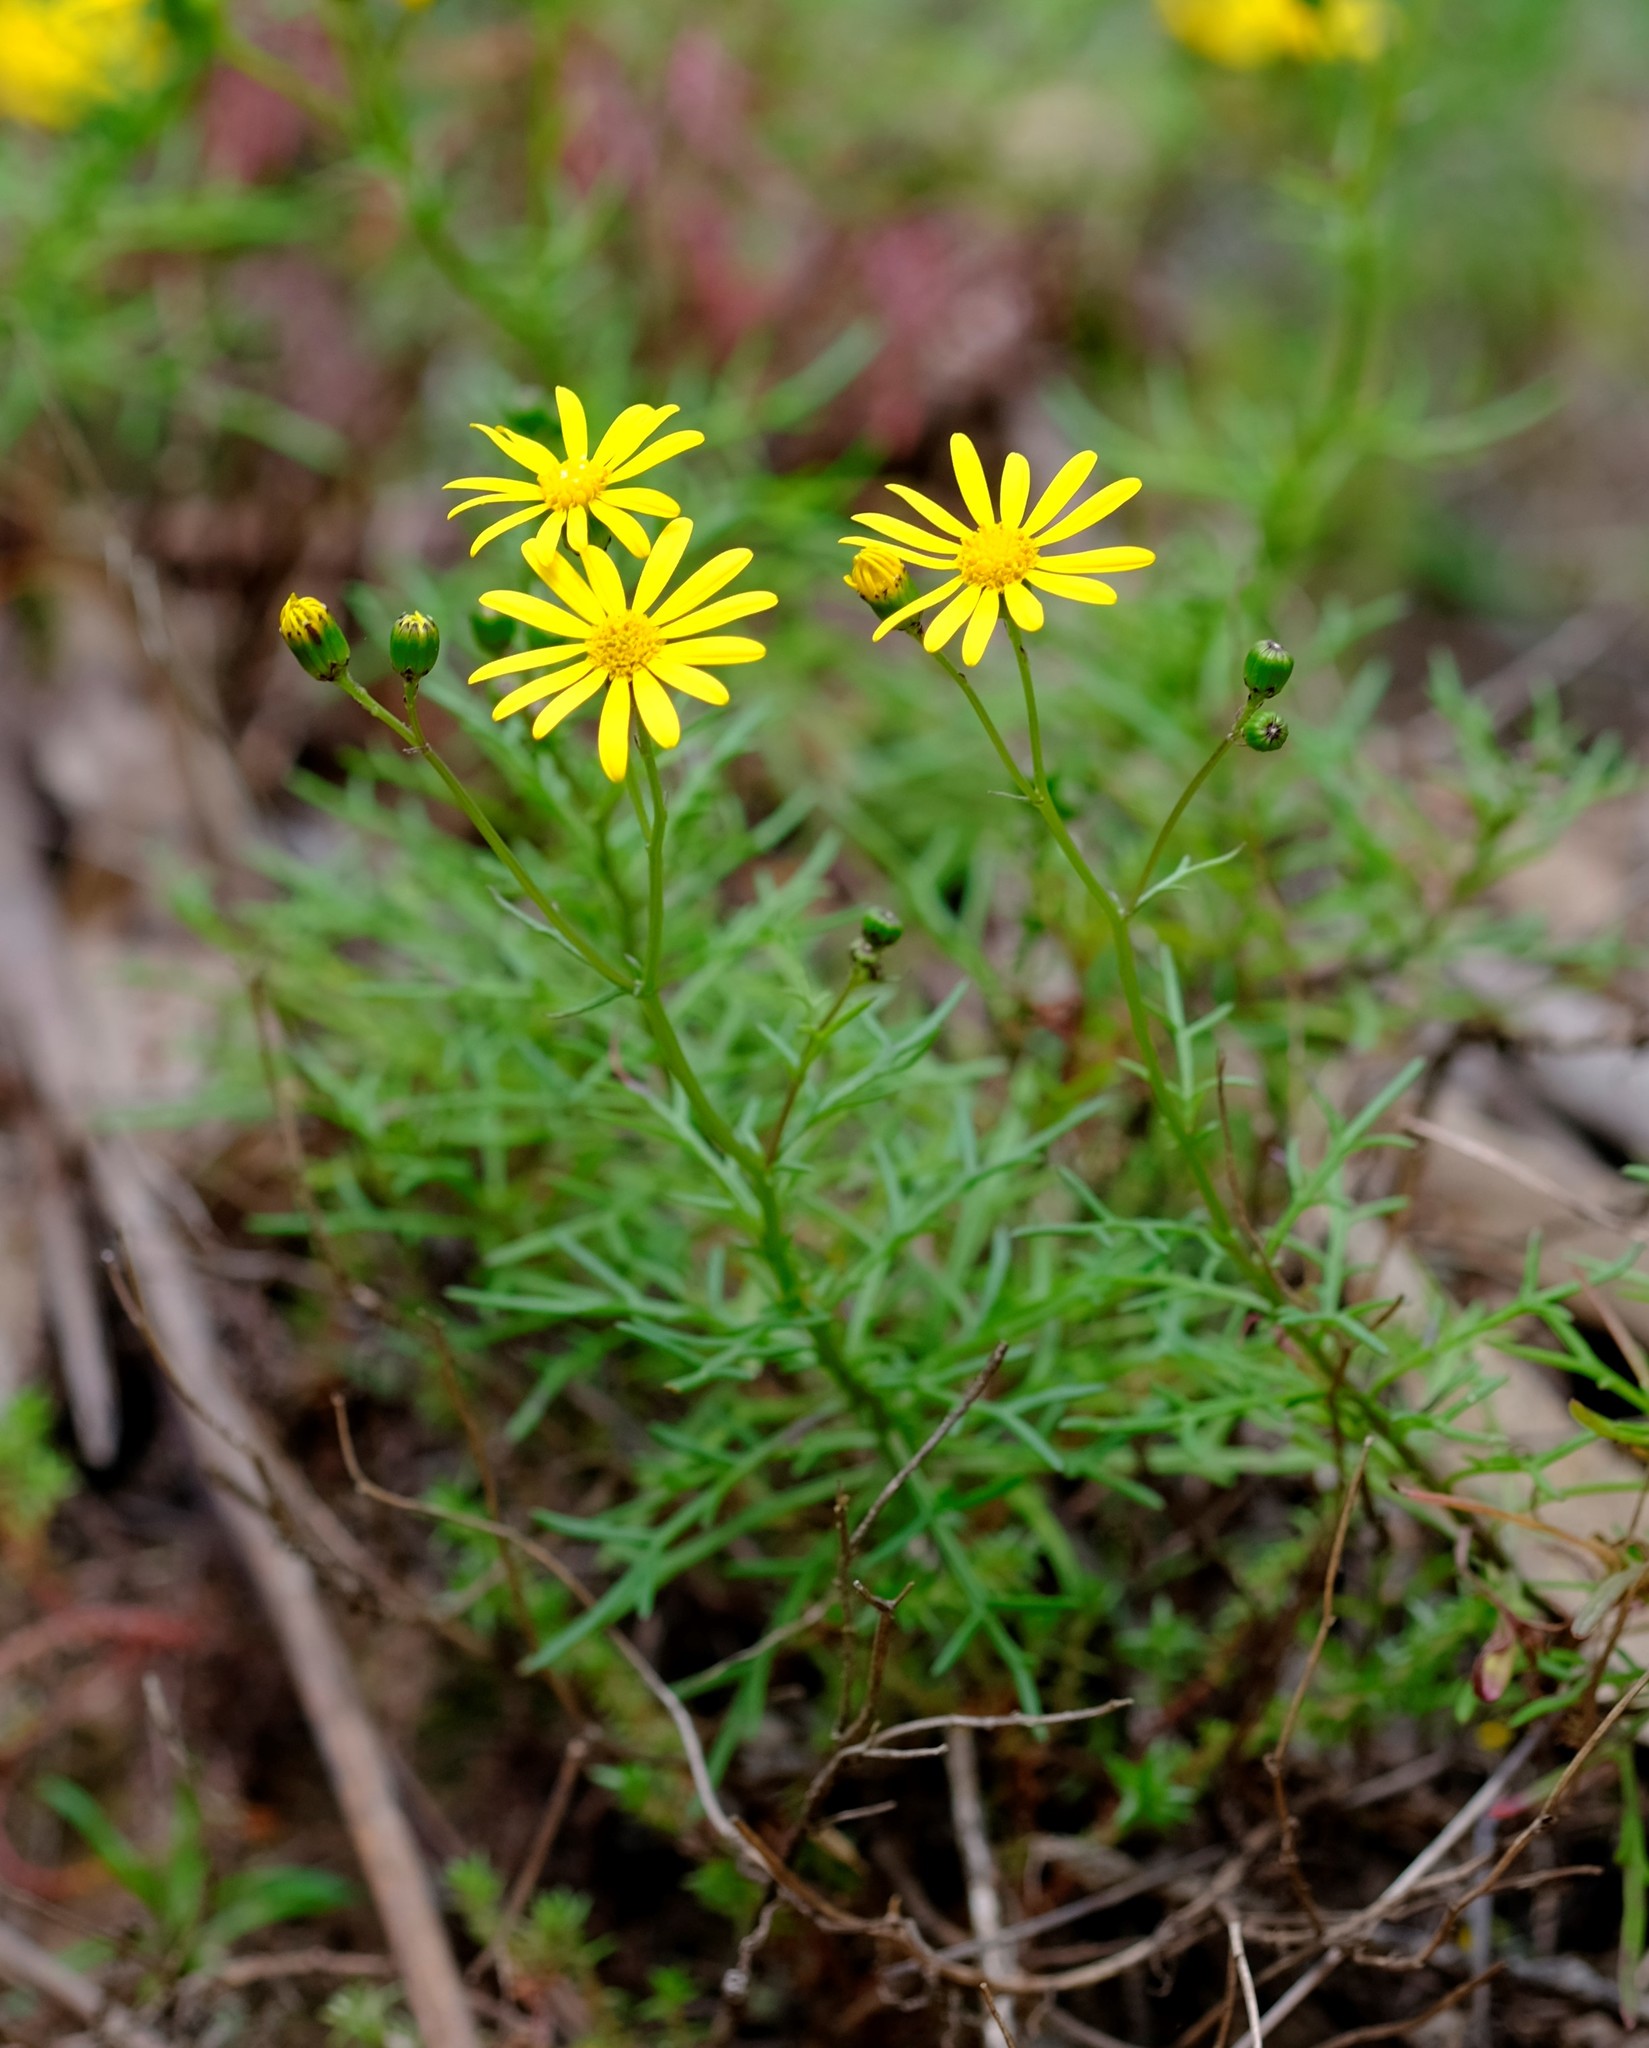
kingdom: Plantae
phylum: Tracheophyta
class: Magnoliopsida
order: Asterales
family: Asteraceae
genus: Senecio
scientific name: Senecio pinnatifolius
